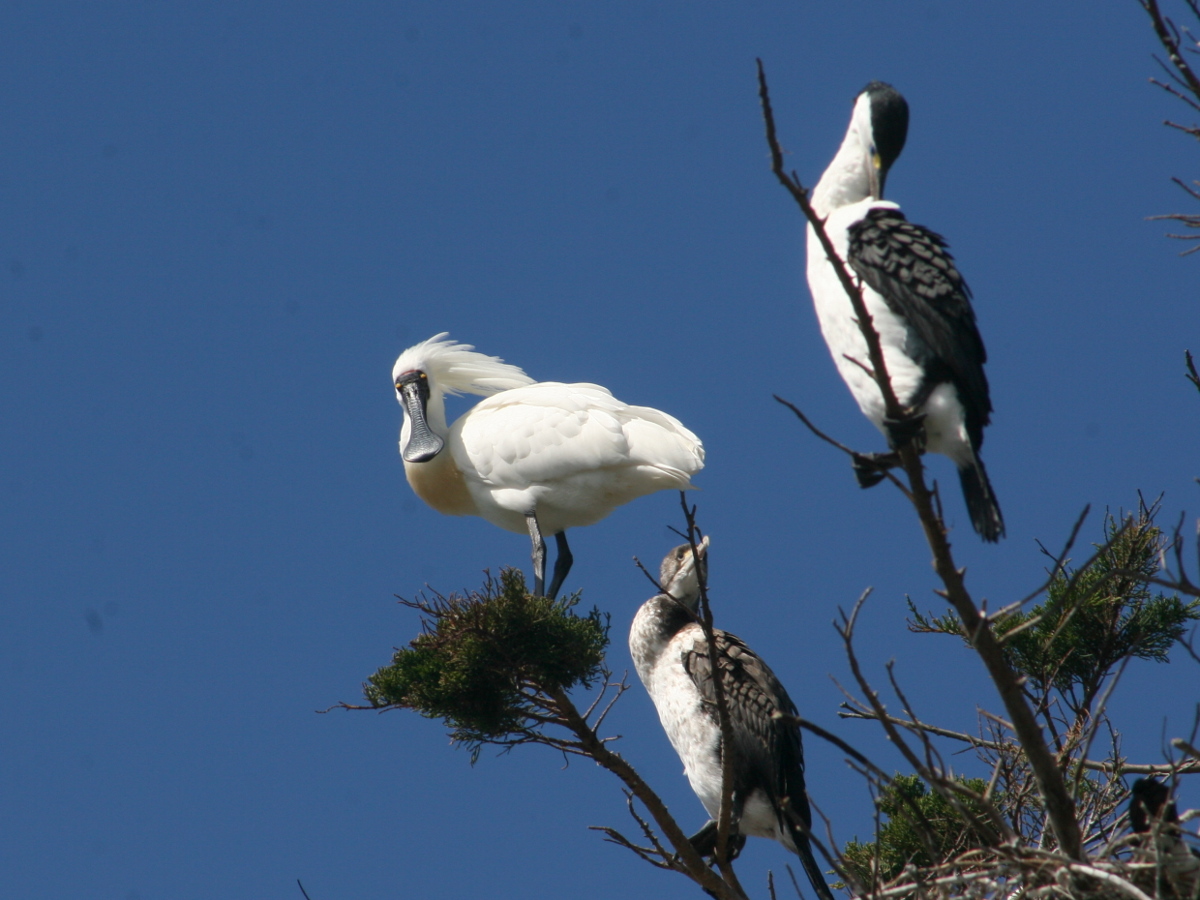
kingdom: Animalia
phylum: Chordata
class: Aves
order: Pelecaniformes
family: Threskiornithidae
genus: Platalea
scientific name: Platalea regia
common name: Royal spoonbill
